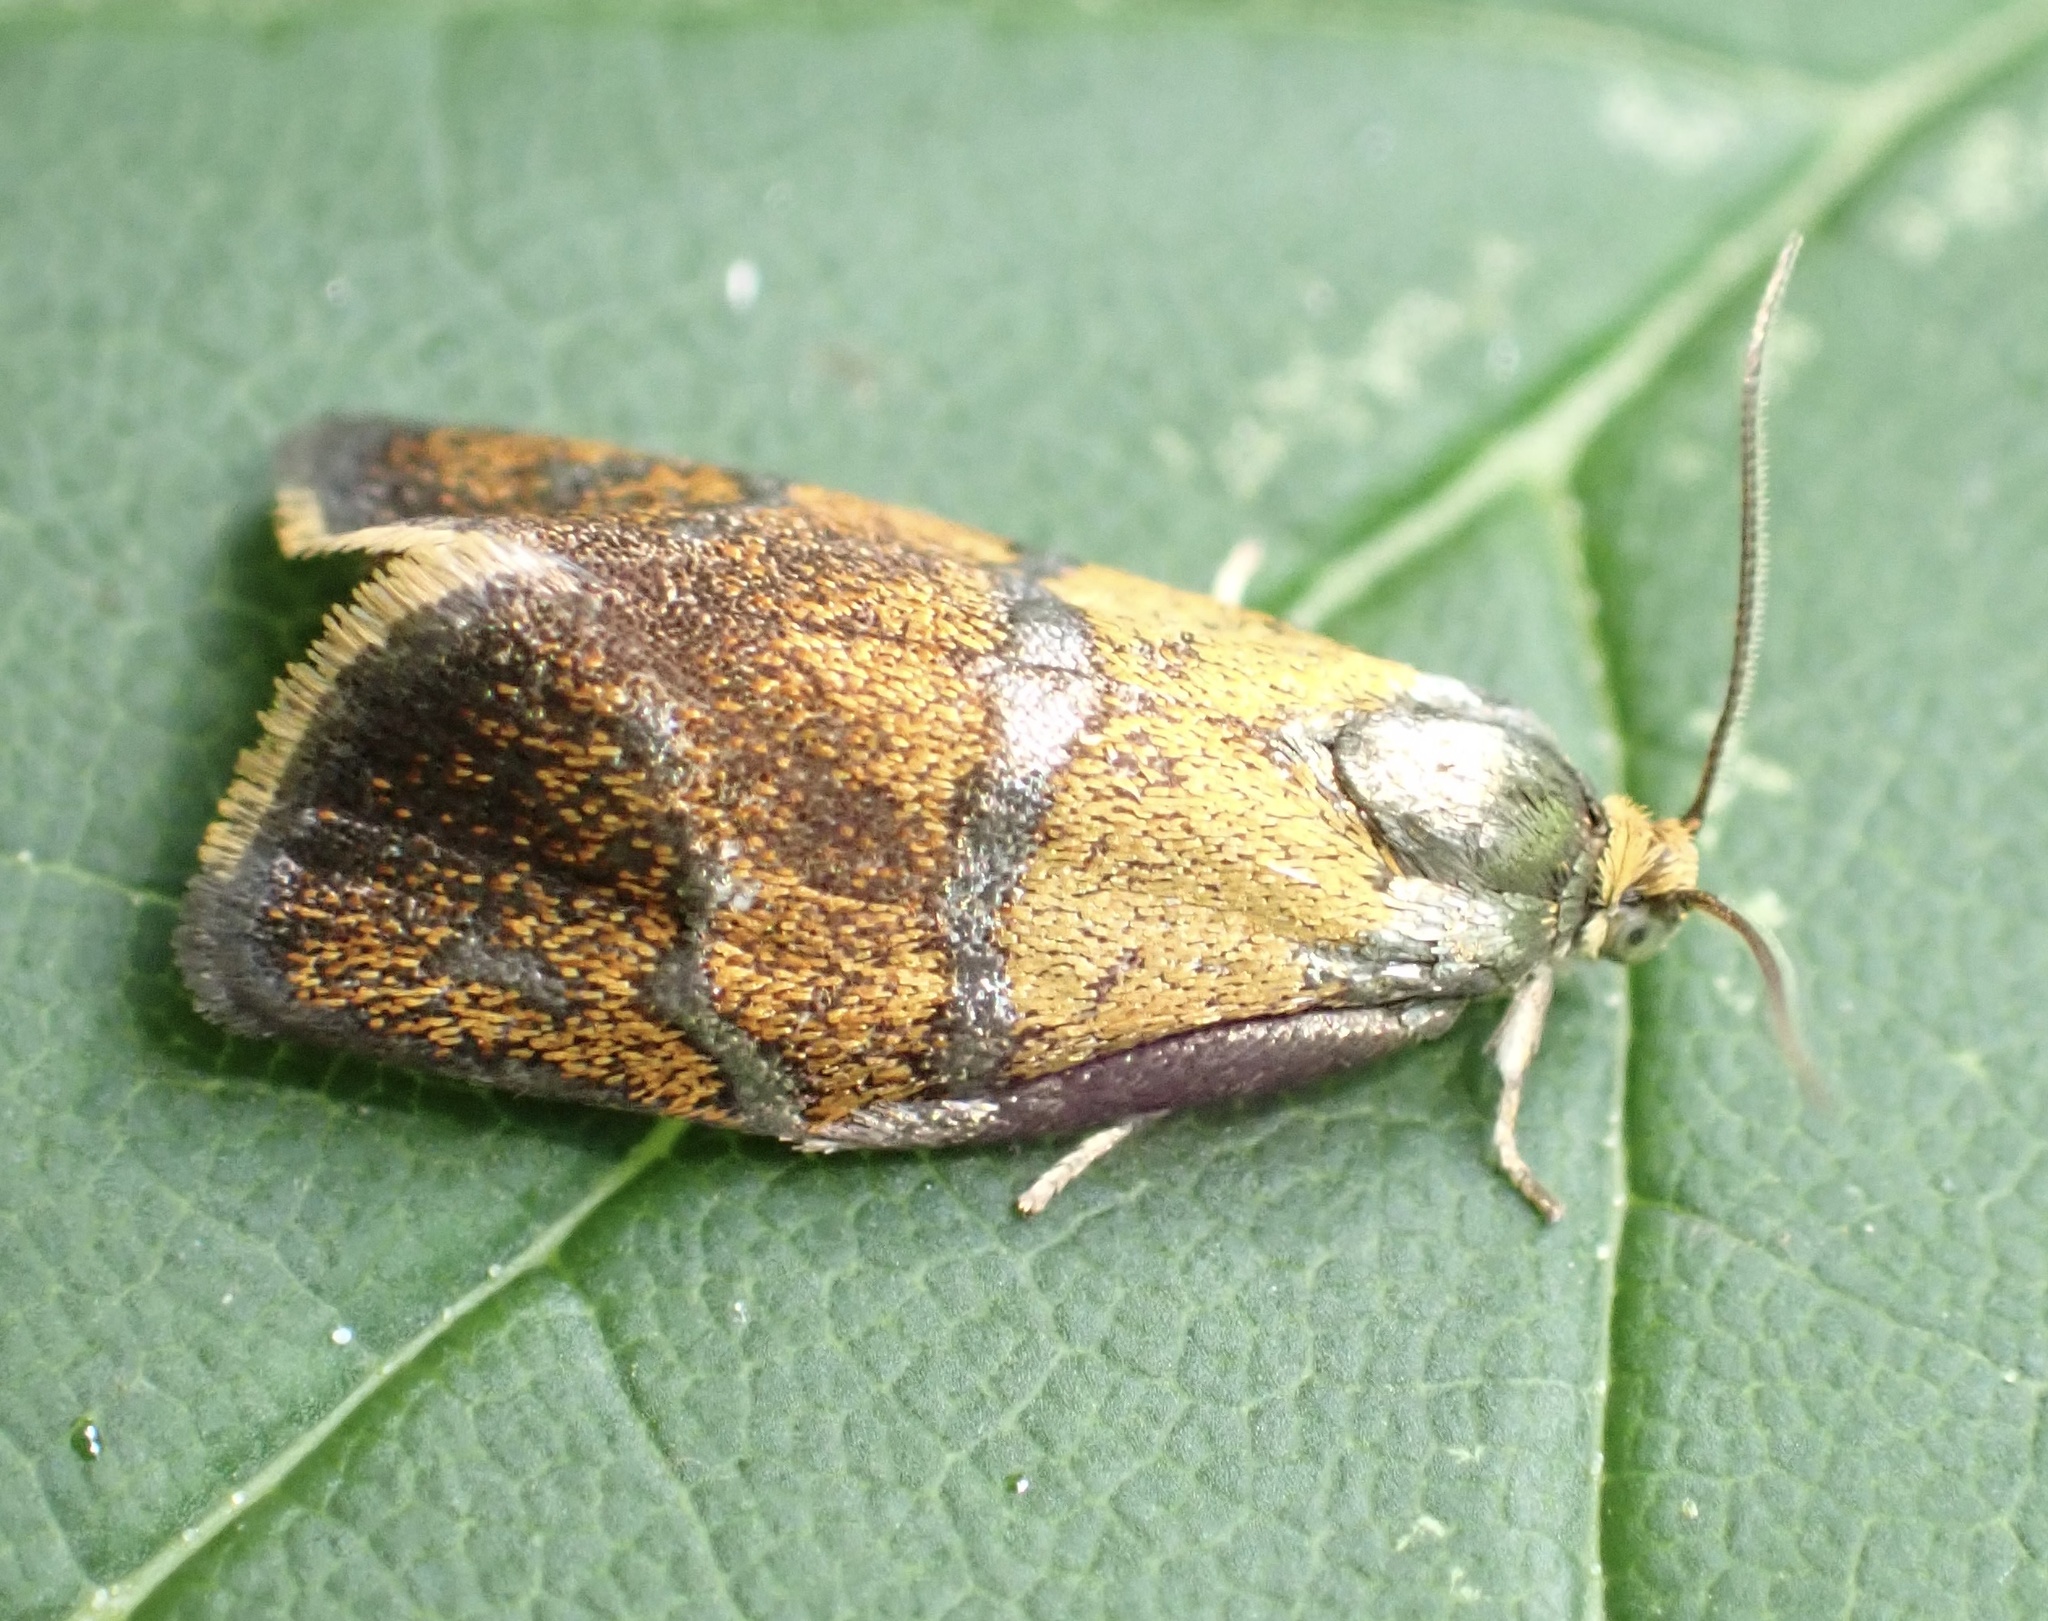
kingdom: Animalia
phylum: Arthropoda
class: Insecta
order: Lepidoptera
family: Tortricidae
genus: Ptycholoma
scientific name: Ptycholoma lecheana
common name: Leches twist moth
